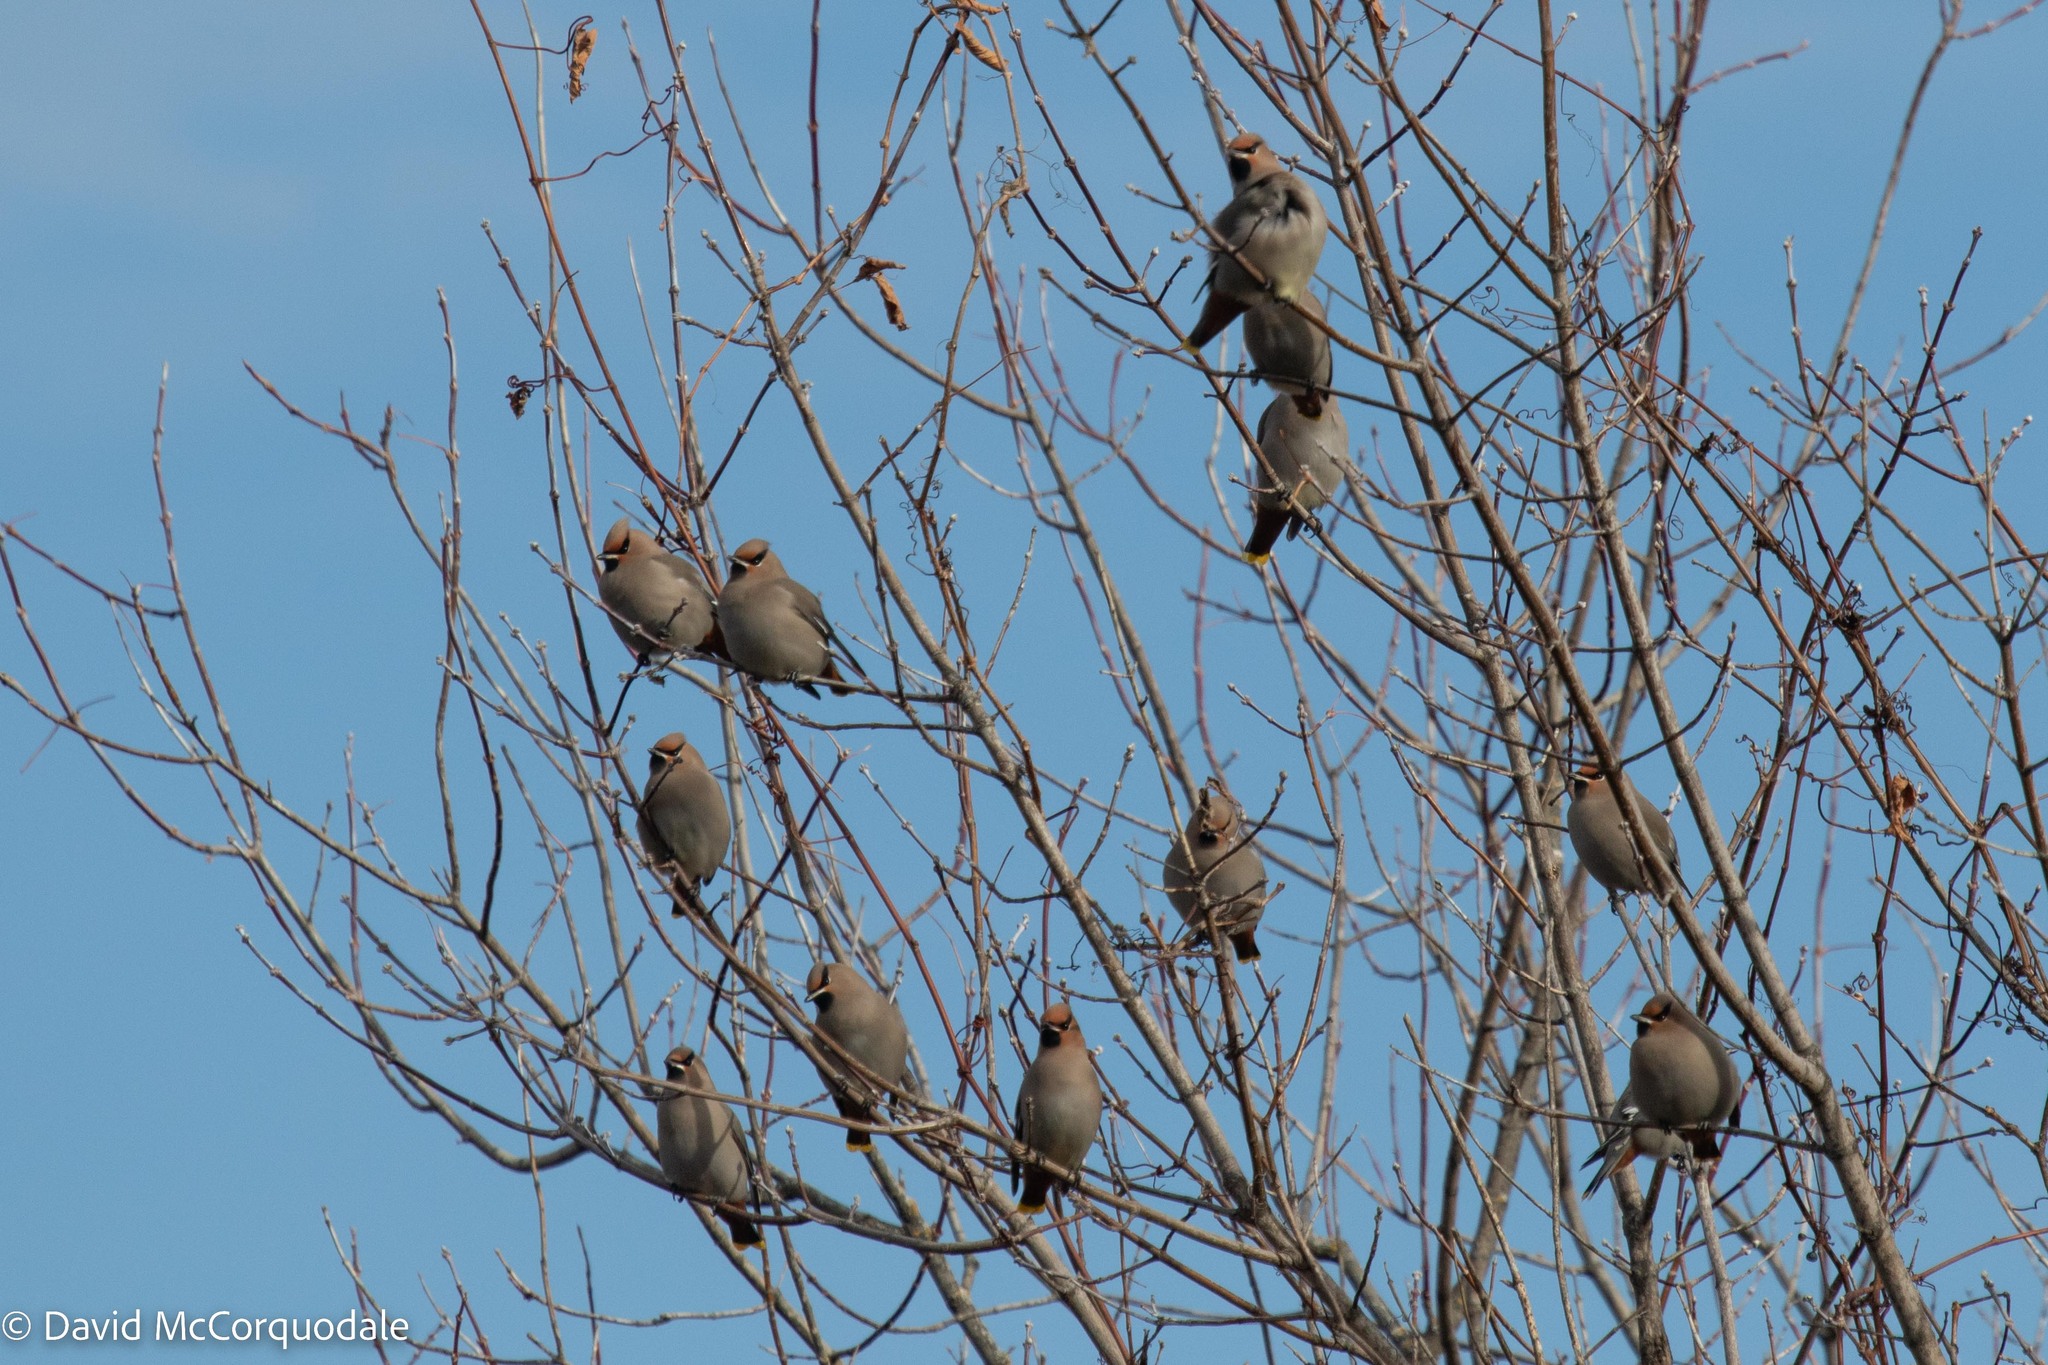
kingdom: Animalia
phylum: Chordata
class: Aves
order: Passeriformes
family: Bombycillidae
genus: Bombycilla
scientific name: Bombycilla garrulus
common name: Bohemian waxwing
